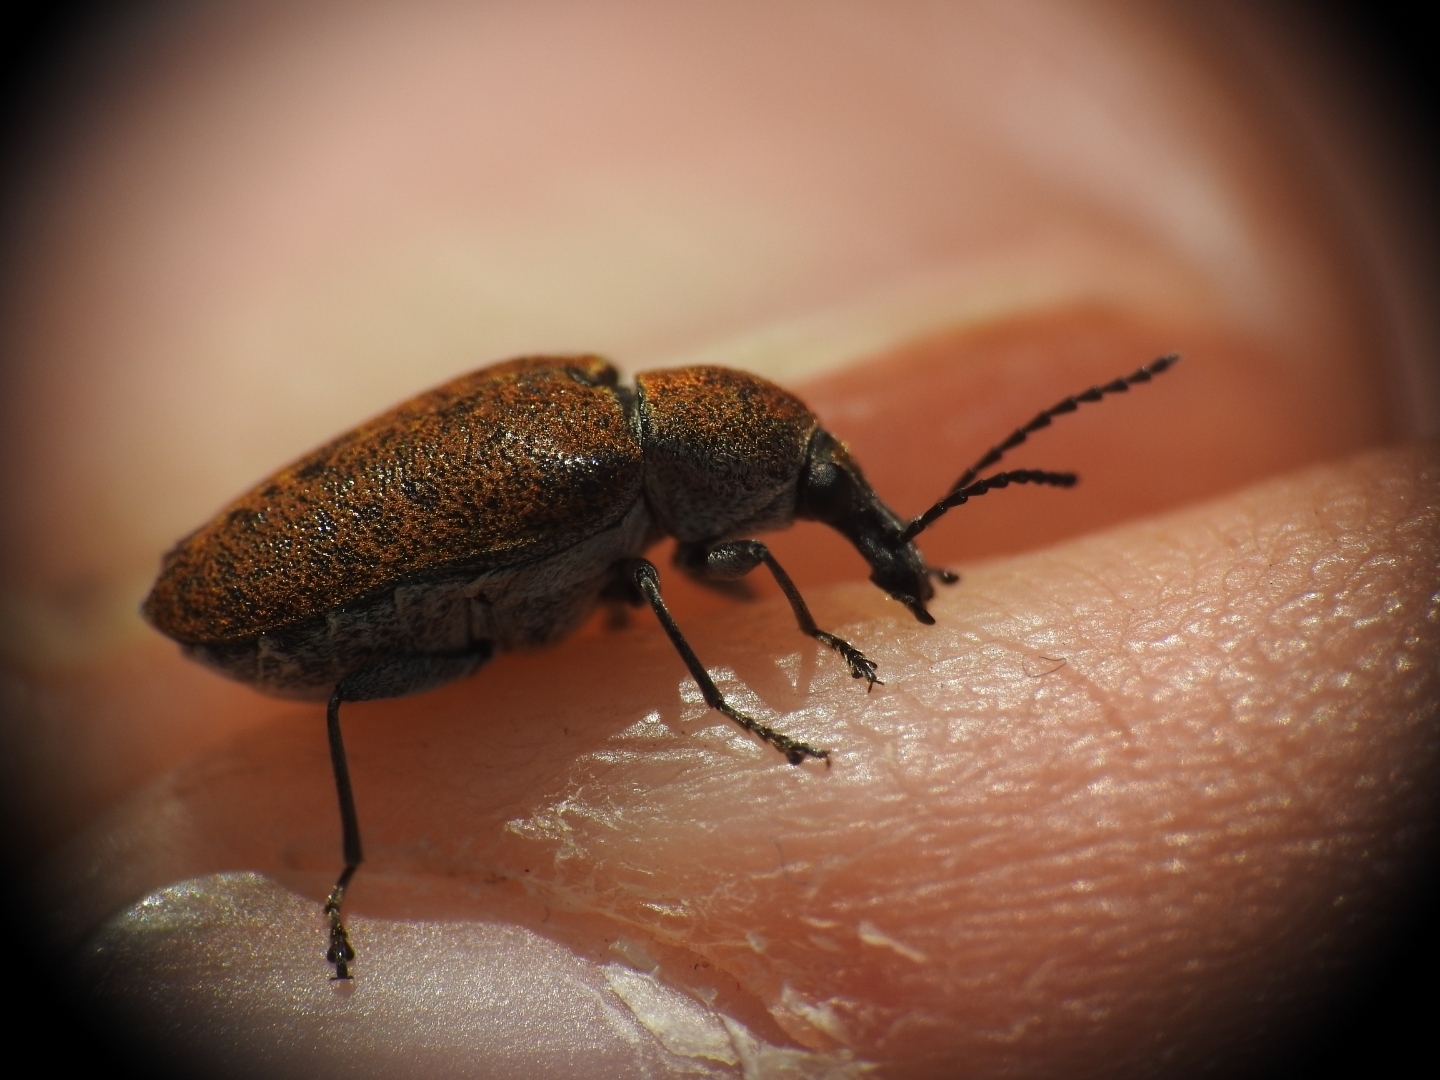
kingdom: Animalia
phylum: Arthropoda
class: Insecta
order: Coleoptera
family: Mycteridae
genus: Mycterus
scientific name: Mycterus curculioides
